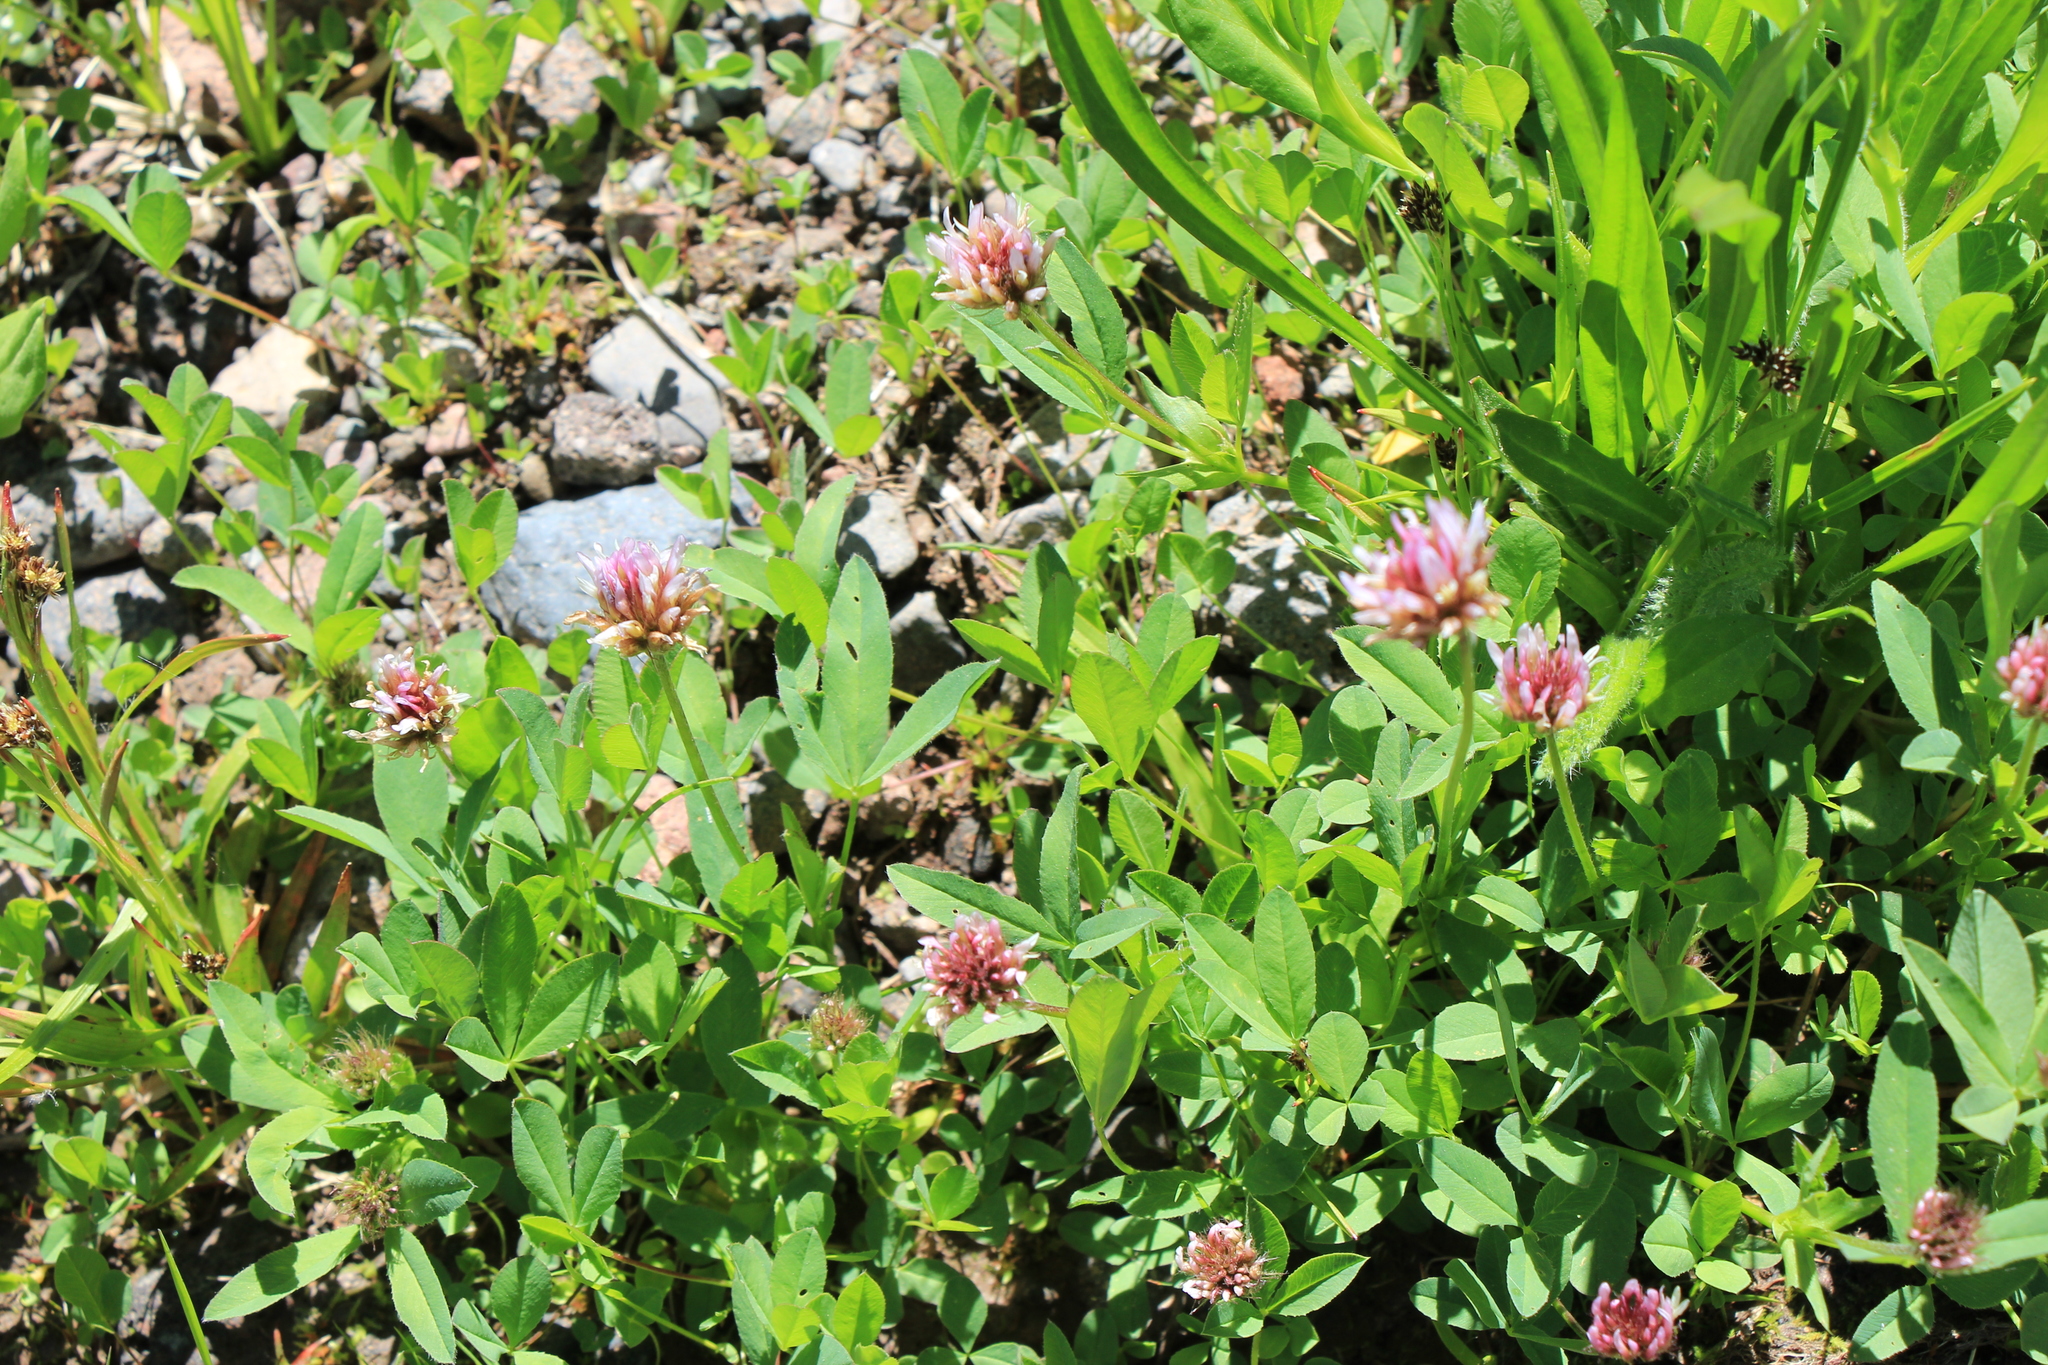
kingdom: Plantae
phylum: Tracheophyta
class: Magnoliopsida
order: Fabales
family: Fabaceae
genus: Trifolium
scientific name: Trifolium longipes
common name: Long-stalk clover
